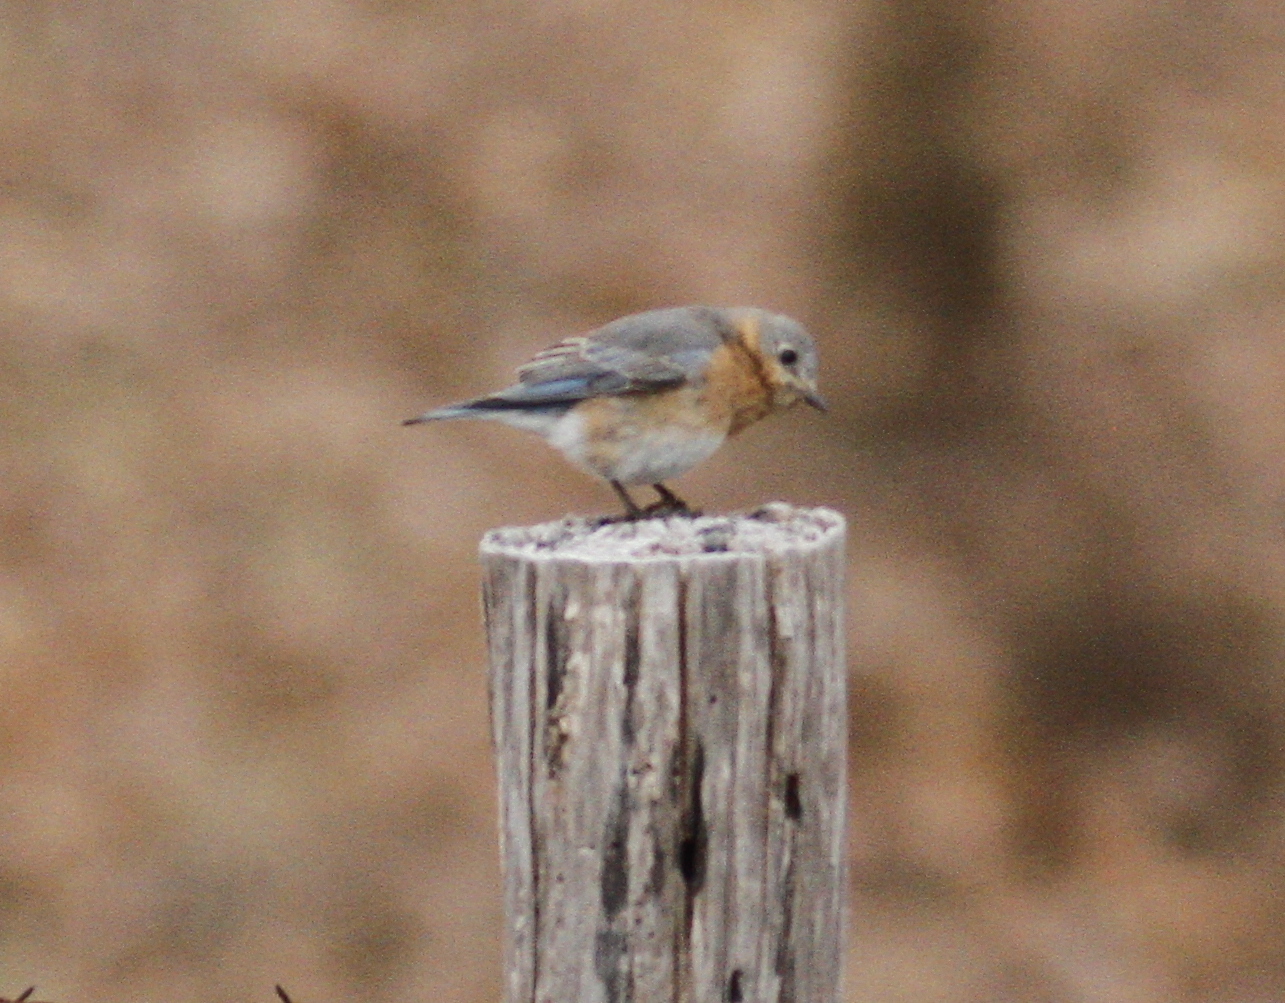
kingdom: Animalia
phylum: Chordata
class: Aves
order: Passeriformes
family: Turdidae
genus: Sialia
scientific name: Sialia sialis
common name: Eastern bluebird
